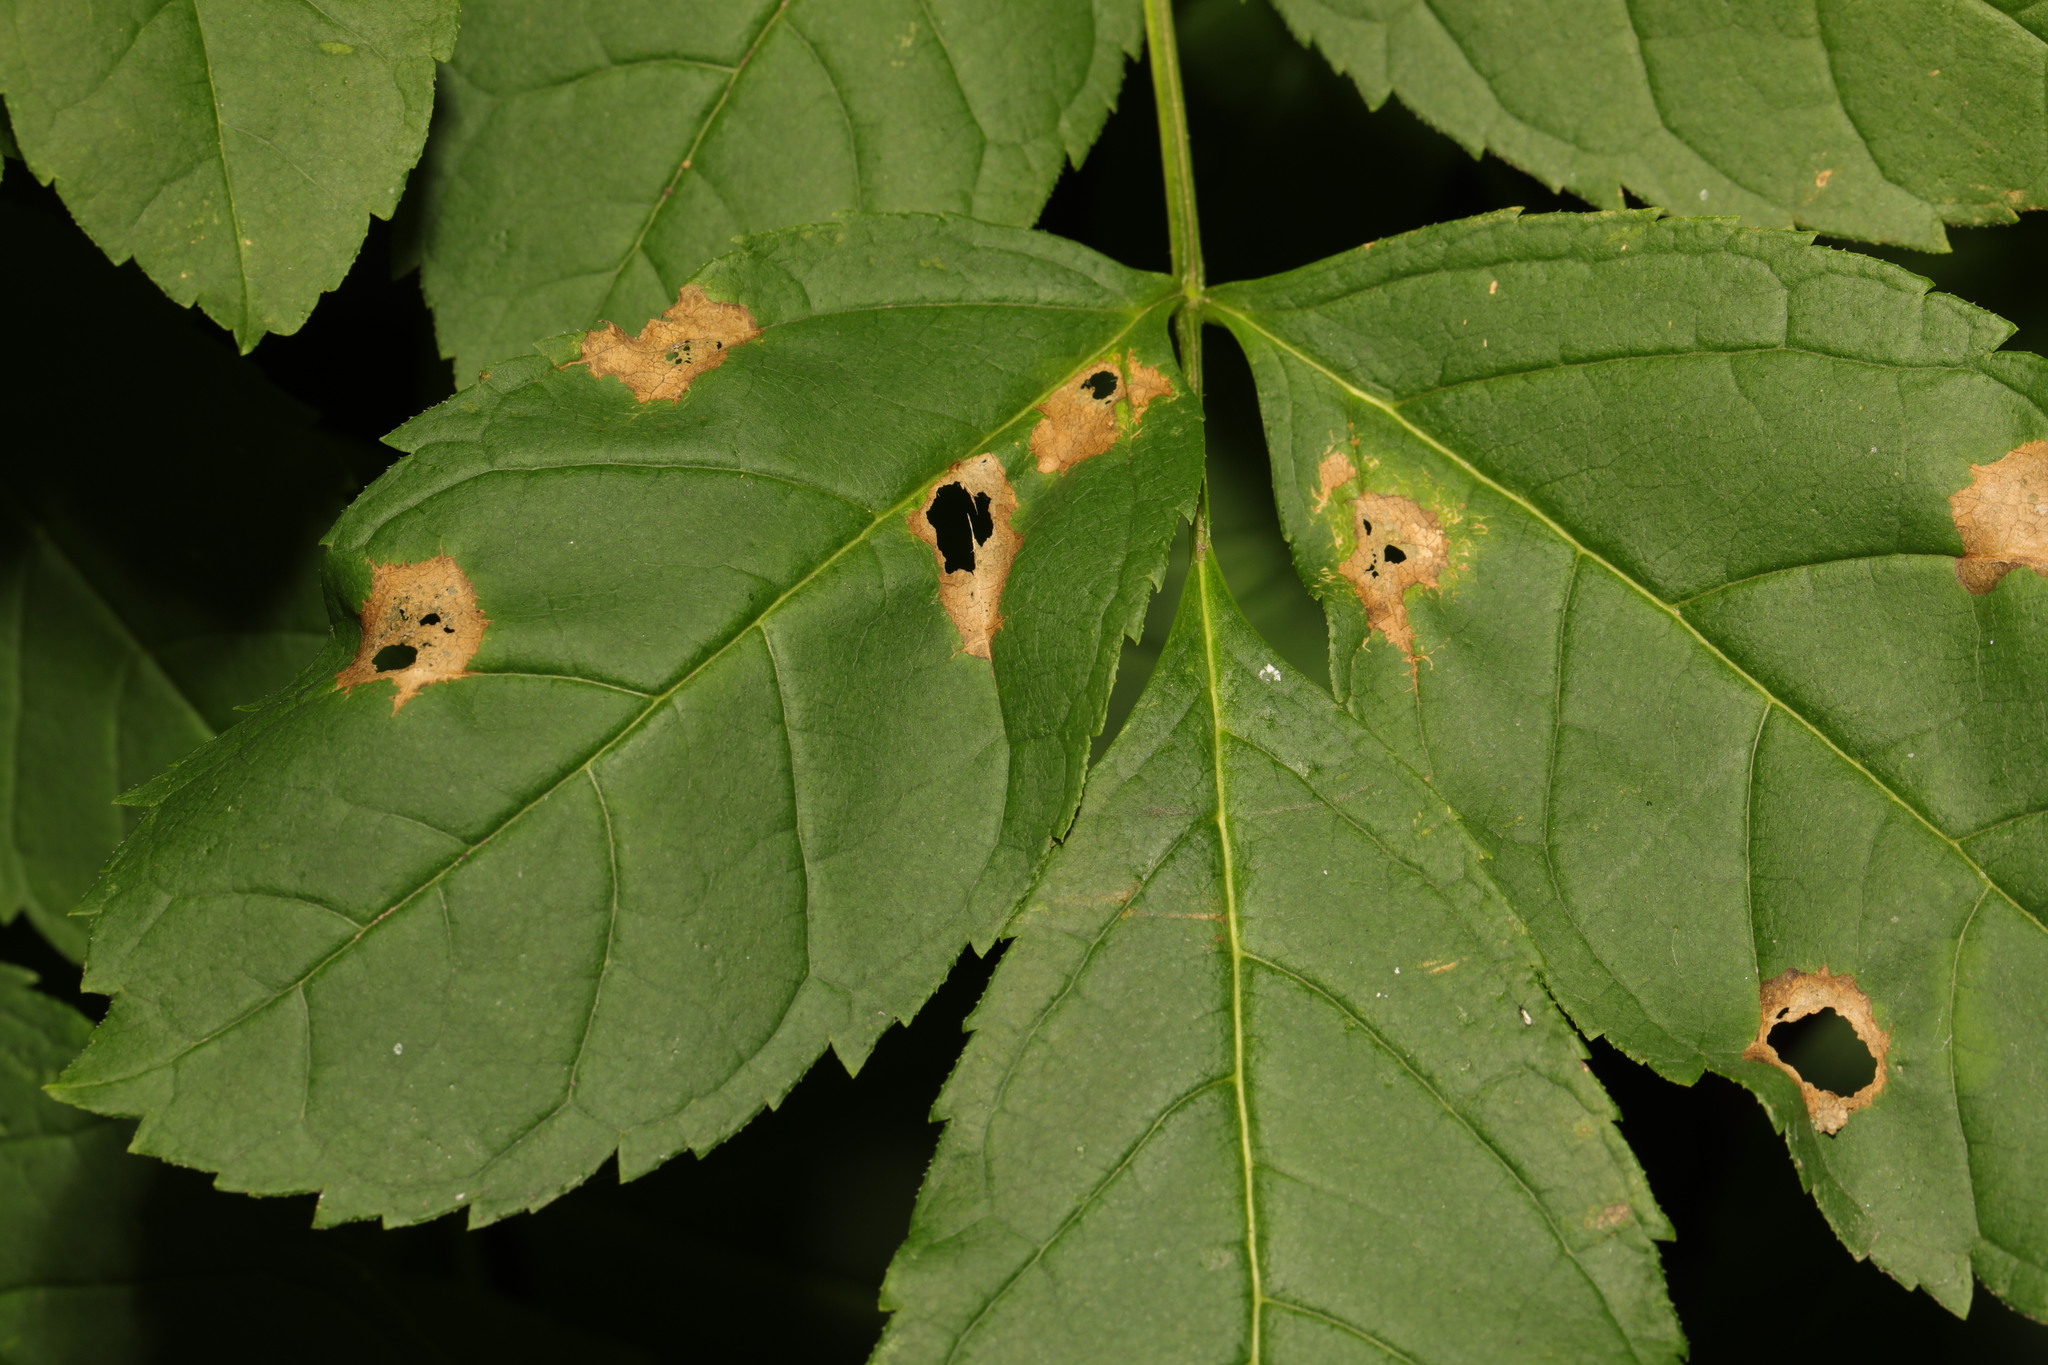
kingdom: Animalia
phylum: Arthropoda
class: Insecta
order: Diptera
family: Cecidomyiidae
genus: Dasineura
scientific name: Dasineura fraxinea
